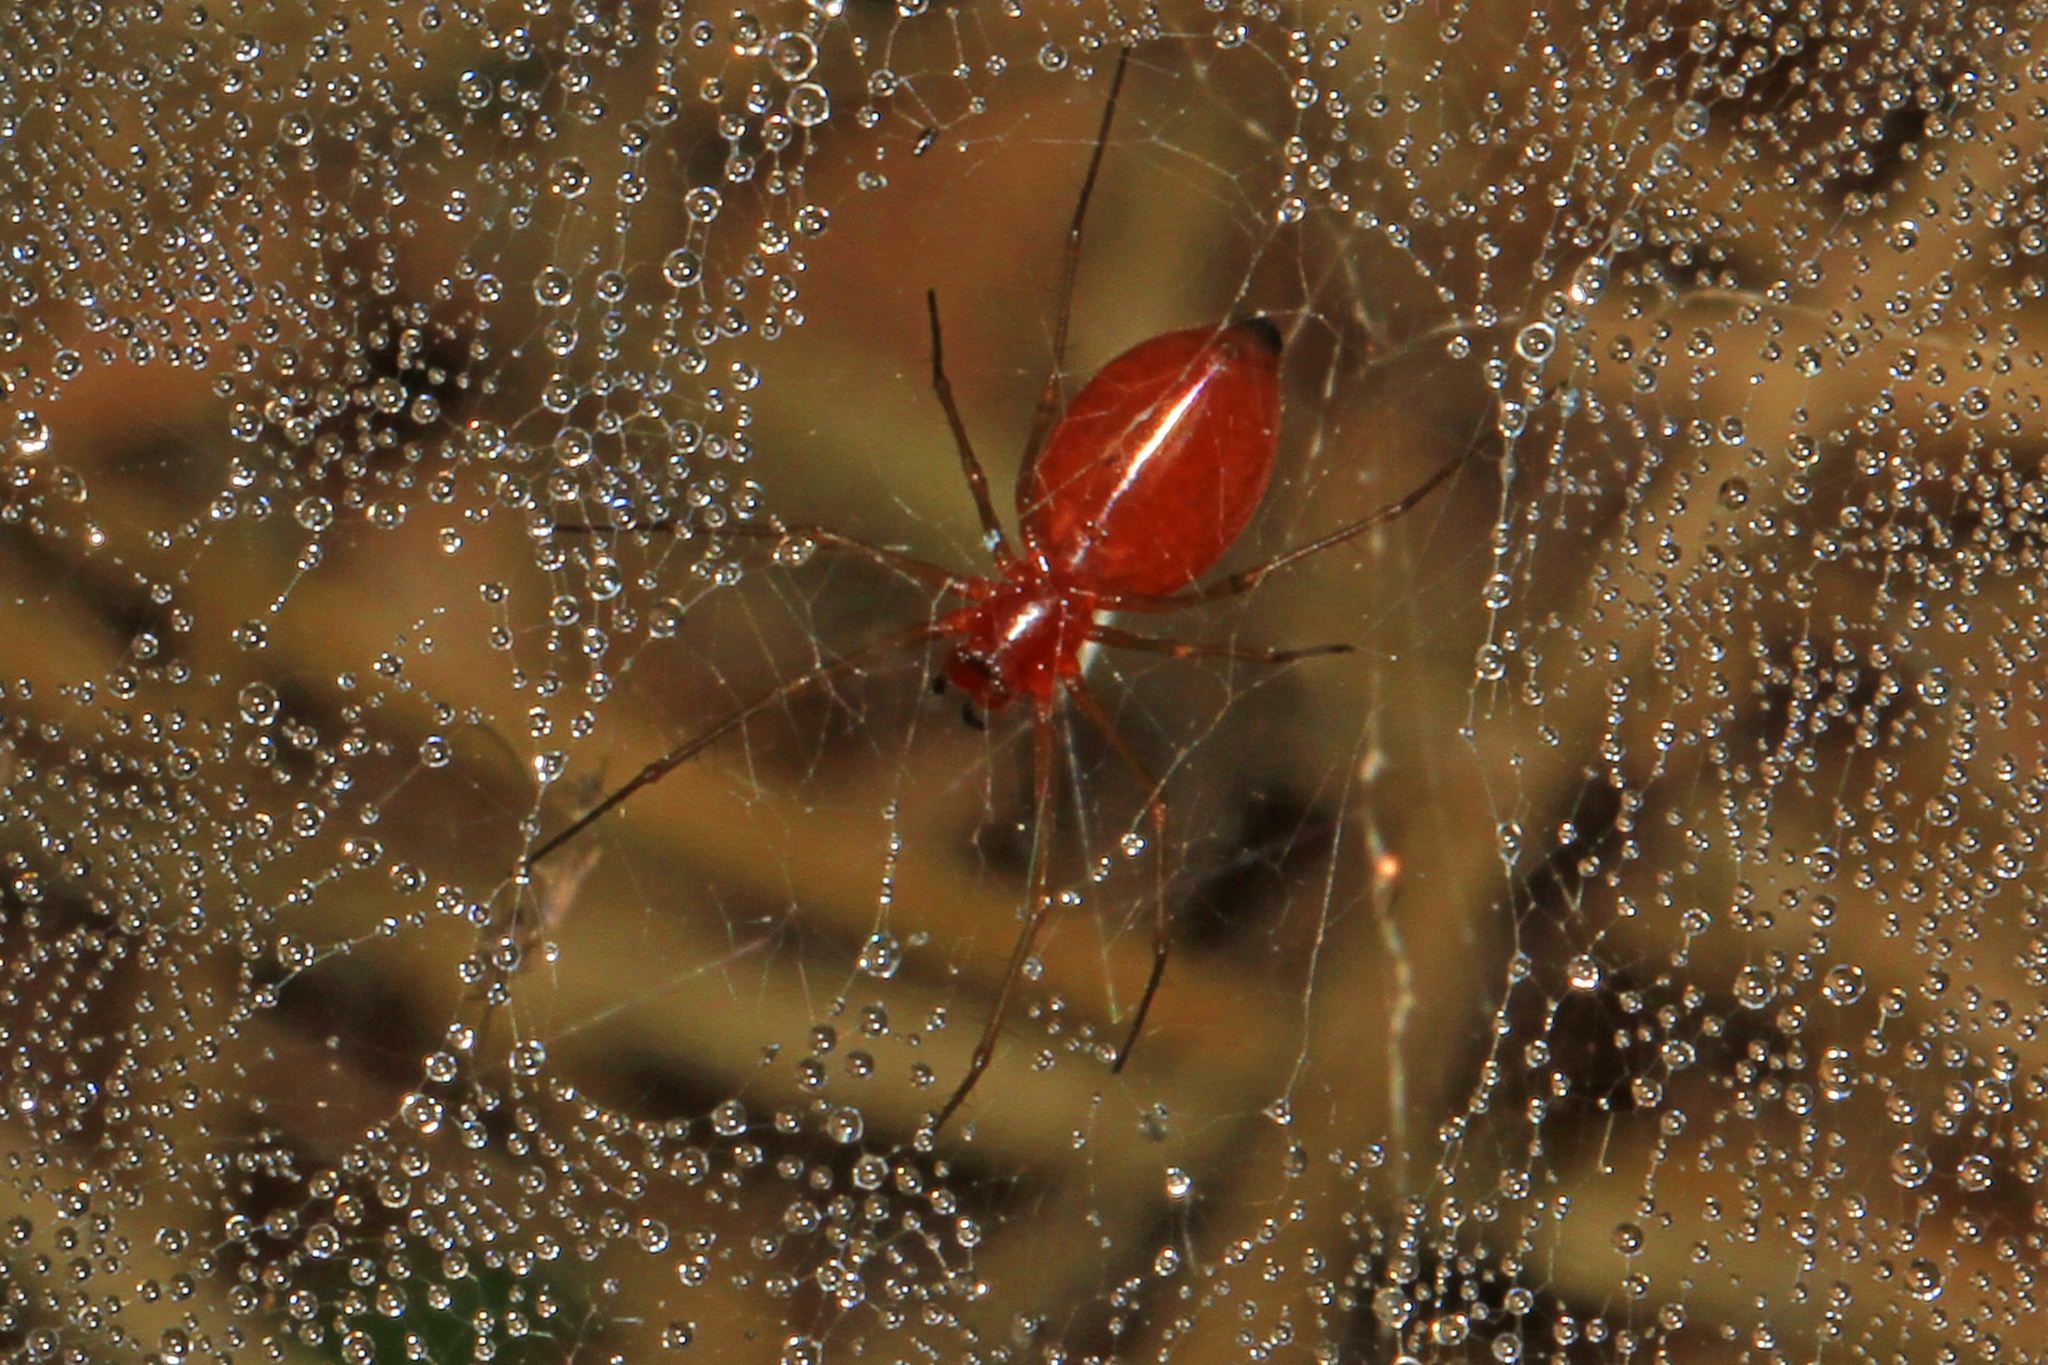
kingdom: Animalia
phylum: Arthropoda
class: Arachnida
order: Araneae
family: Linyphiidae
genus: Florinda
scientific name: Florinda coccinea
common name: Black-tailed red sheetweaver
